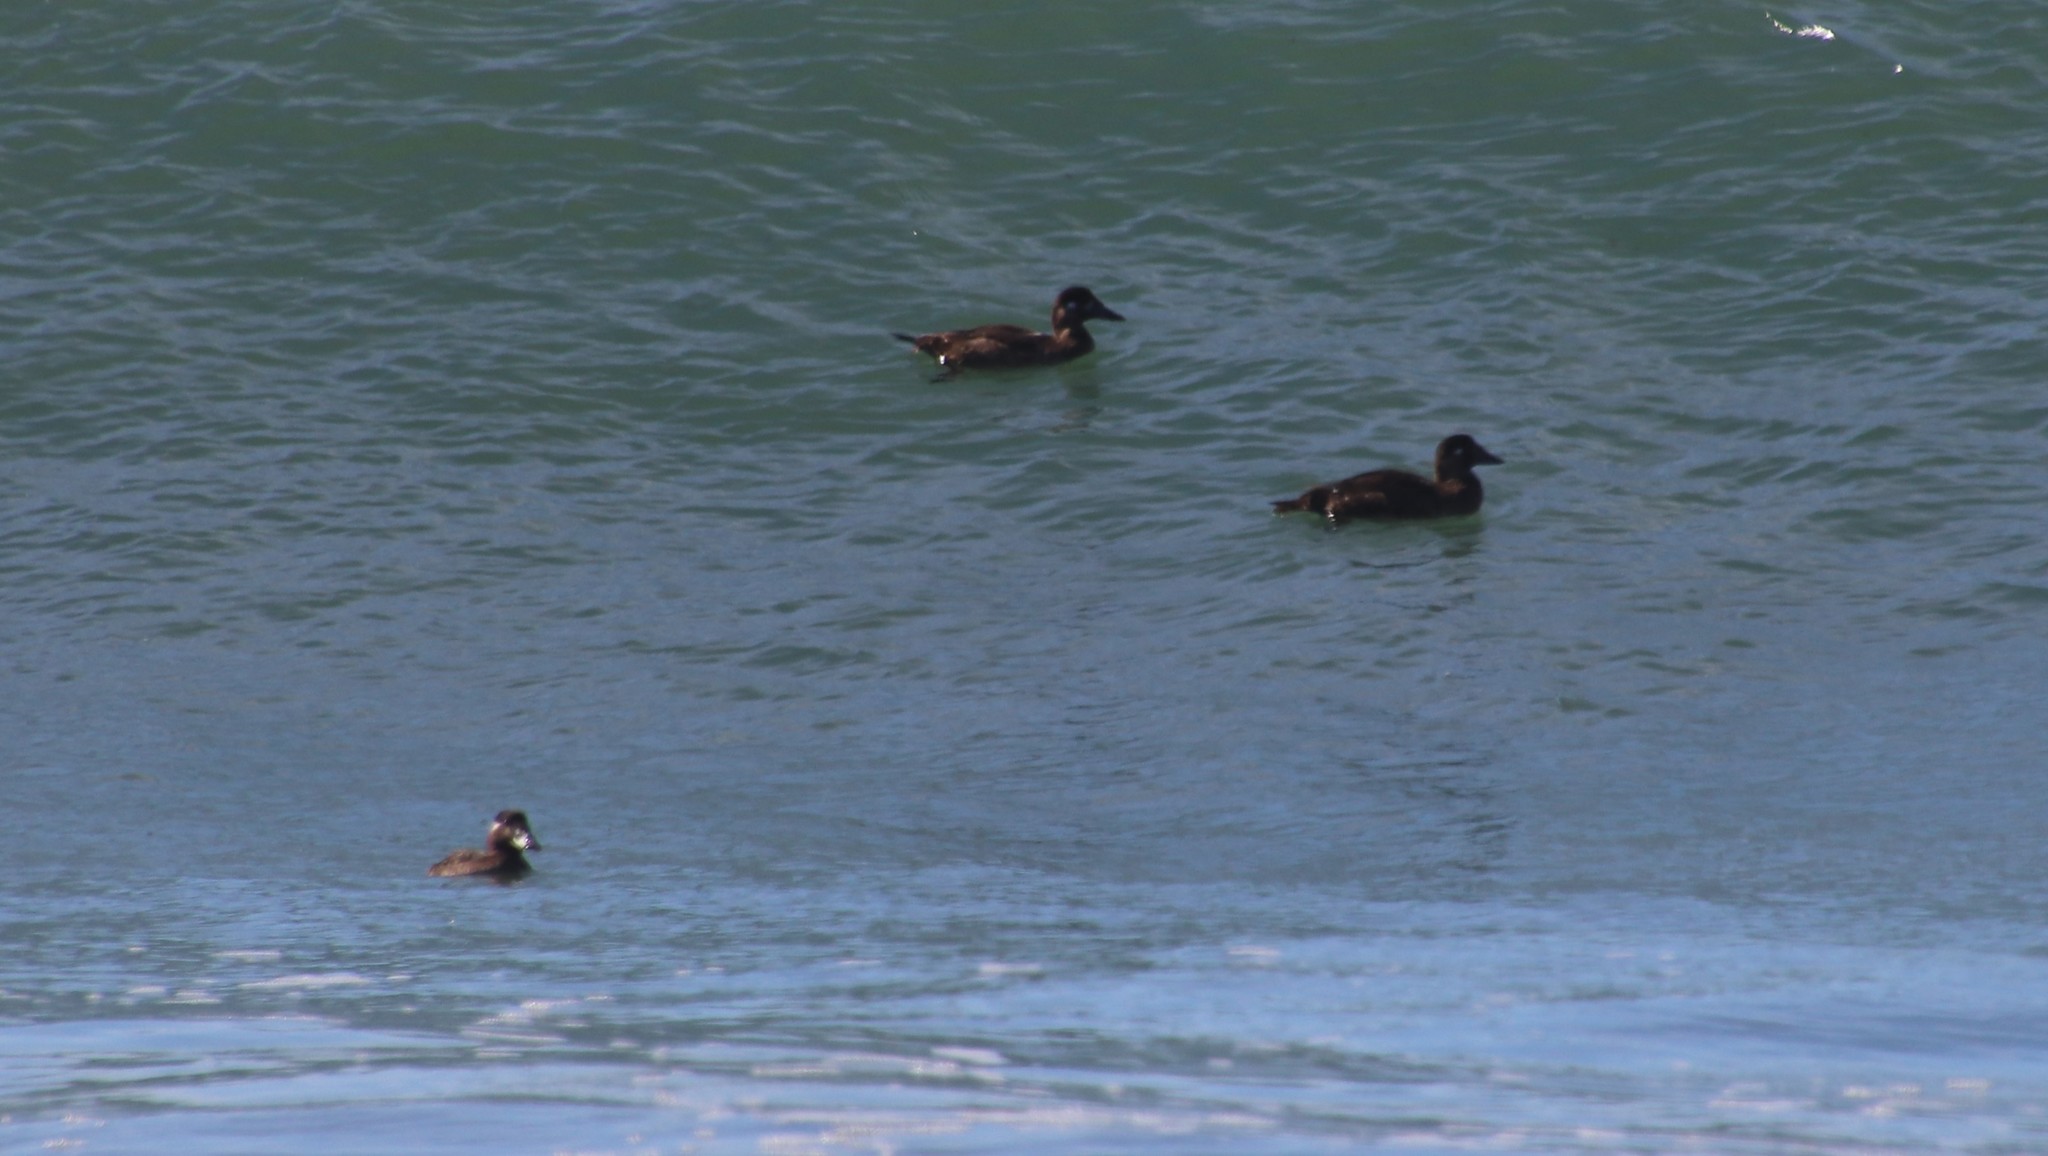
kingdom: Animalia
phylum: Chordata
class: Aves
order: Anseriformes
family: Anatidae
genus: Melanitta
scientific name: Melanitta perspicillata
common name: Surf scoter
